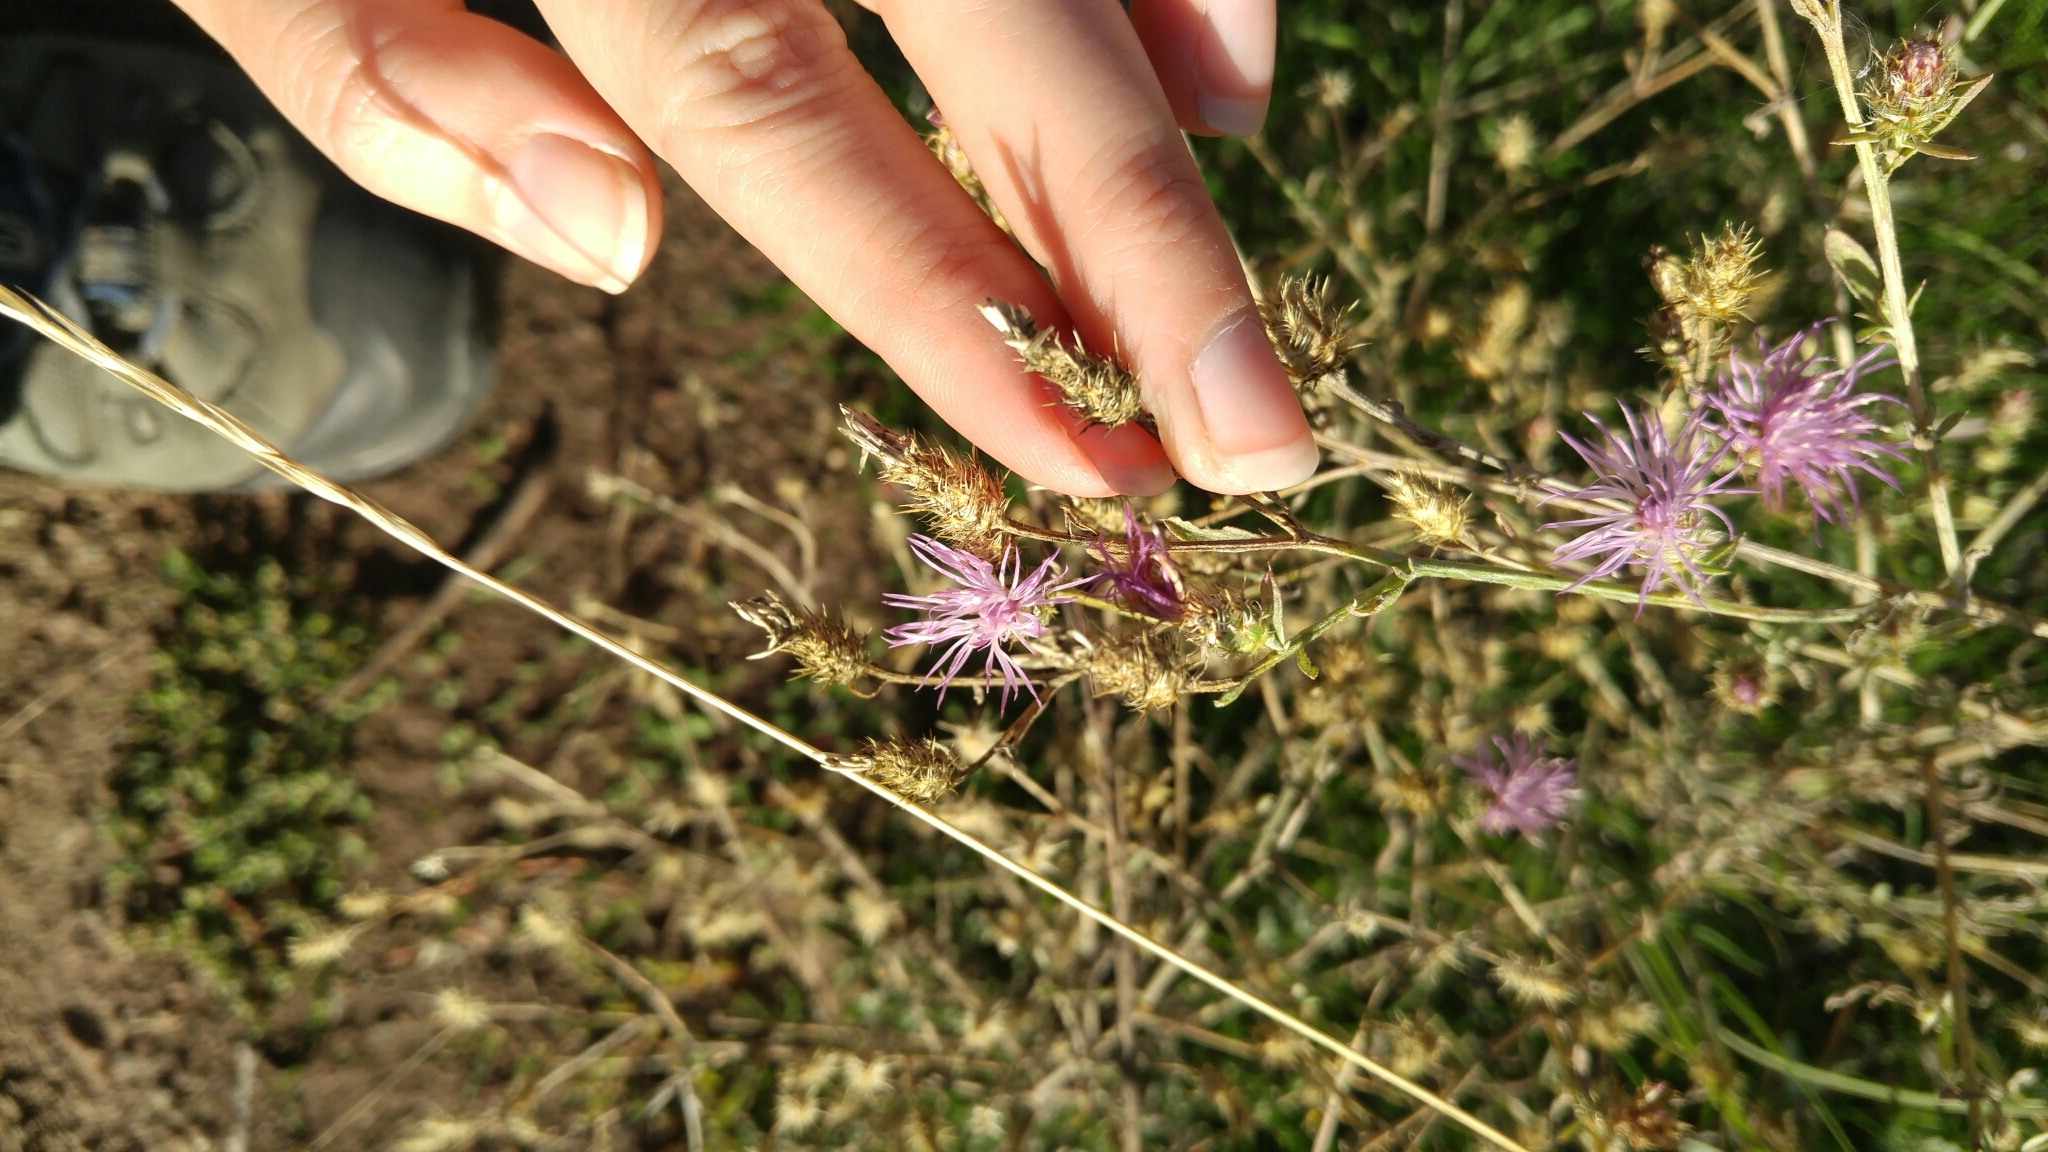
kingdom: Plantae
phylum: Tracheophyta
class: Magnoliopsida
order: Asterales
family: Asteraceae
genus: Centaurea
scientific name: Centaurea diffusa
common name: Diffuse knapweed
